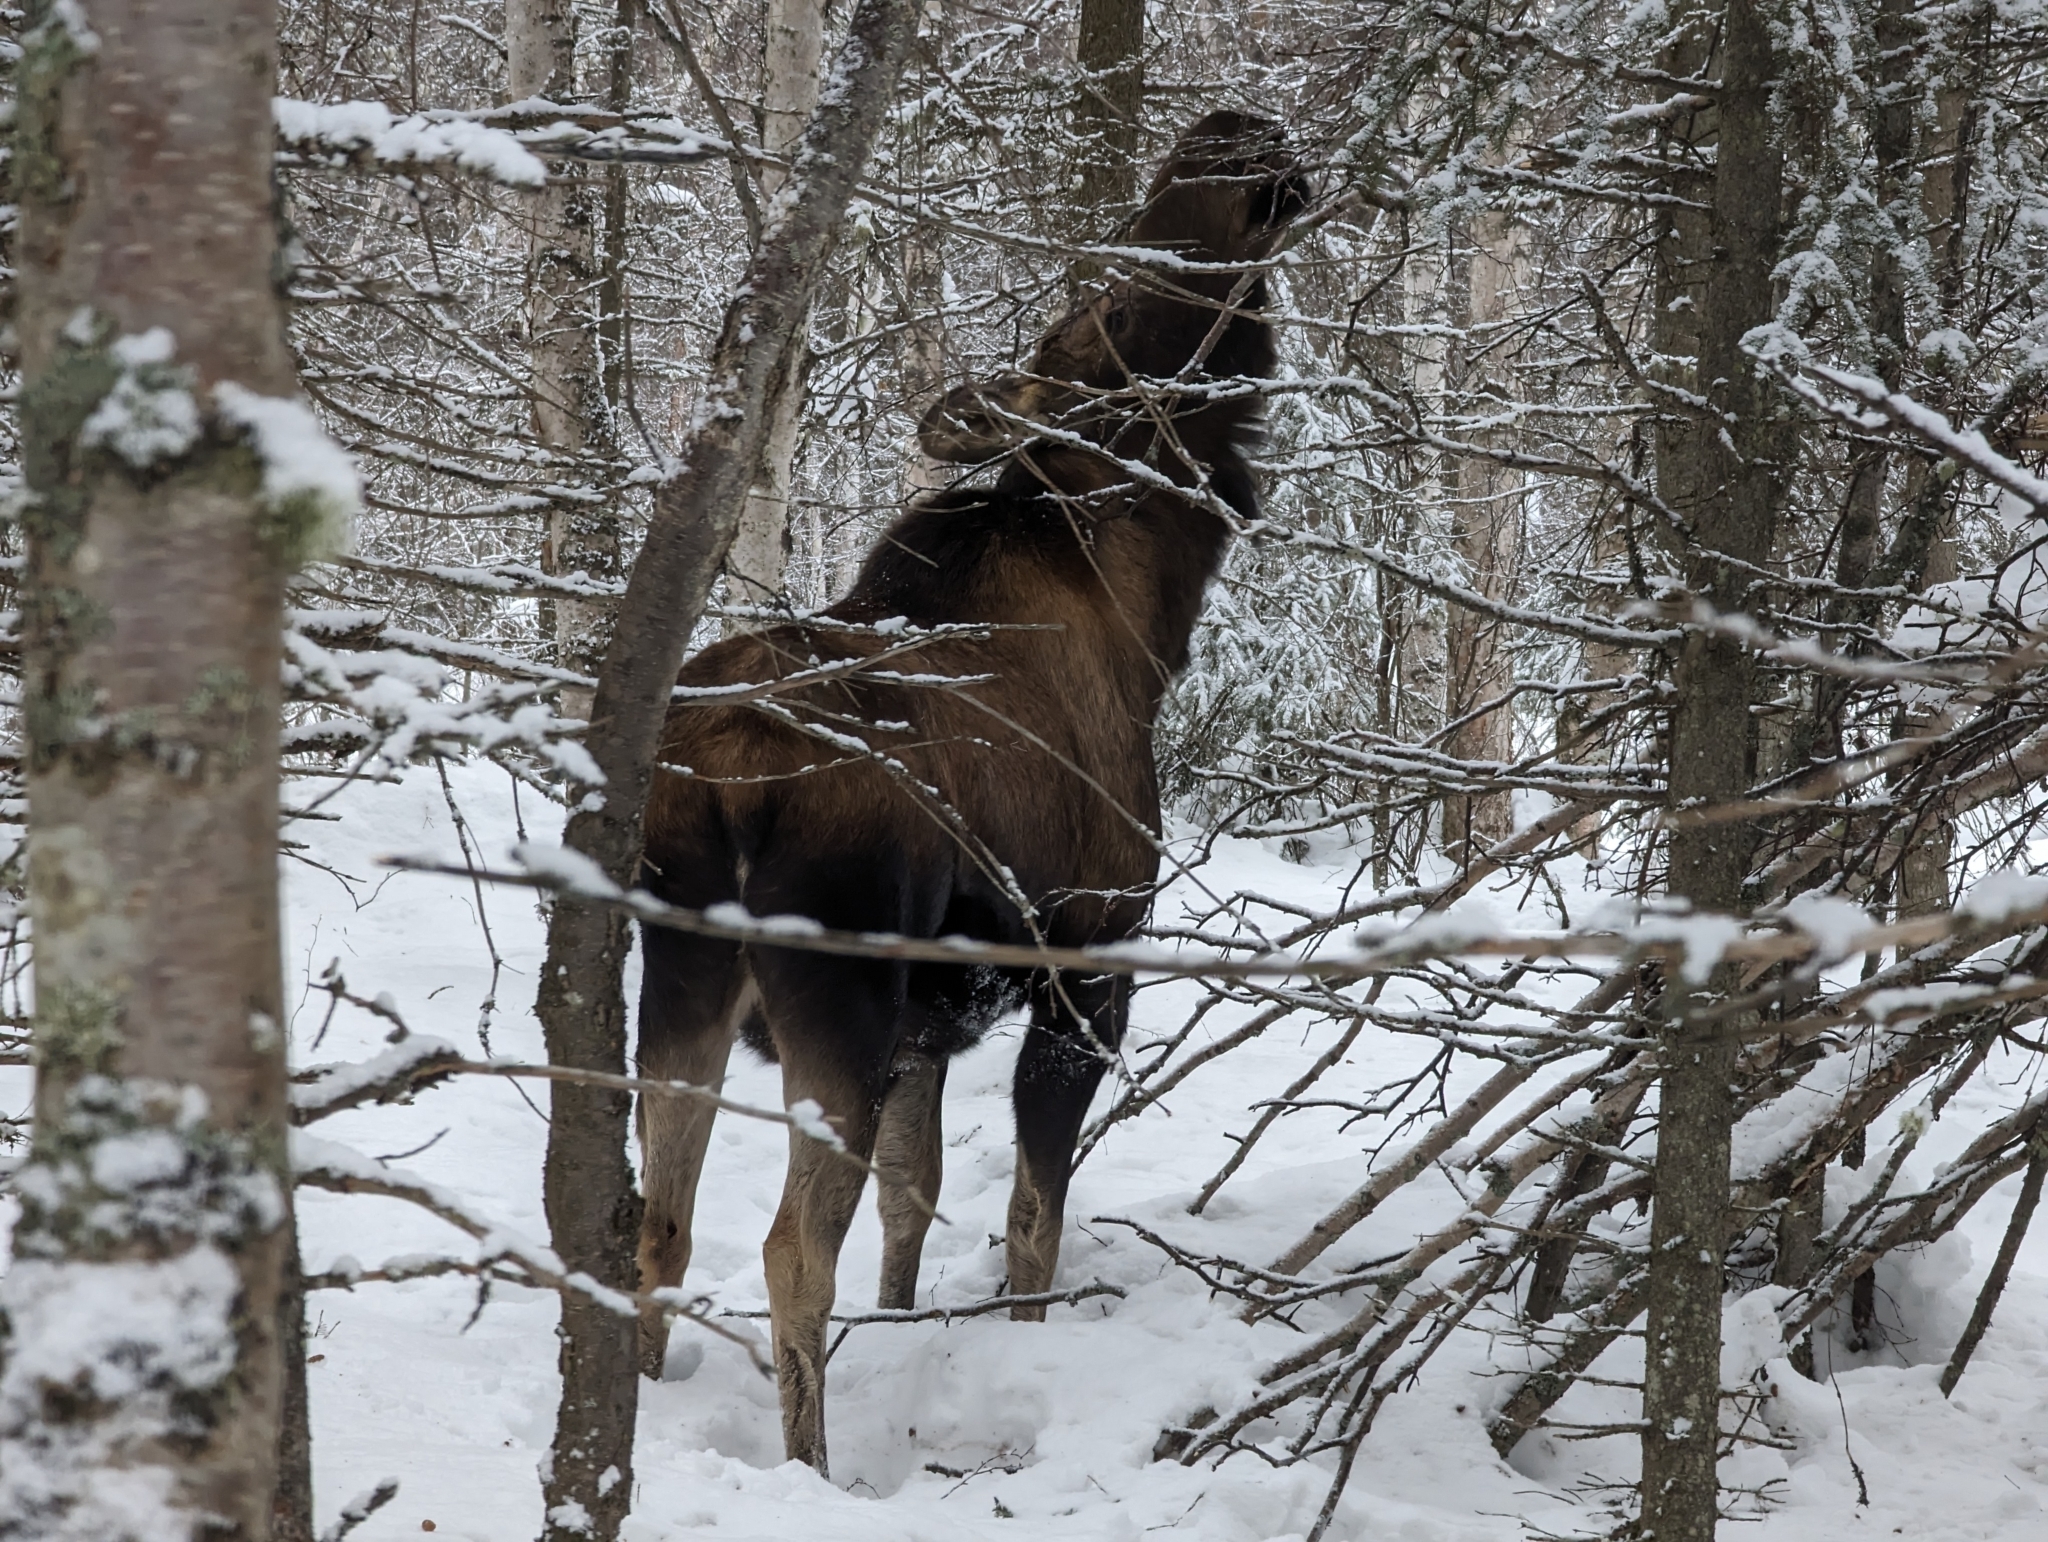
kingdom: Animalia
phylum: Chordata
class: Mammalia
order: Artiodactyla
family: Cervidae
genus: Alces
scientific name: Alces alces
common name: Moose
